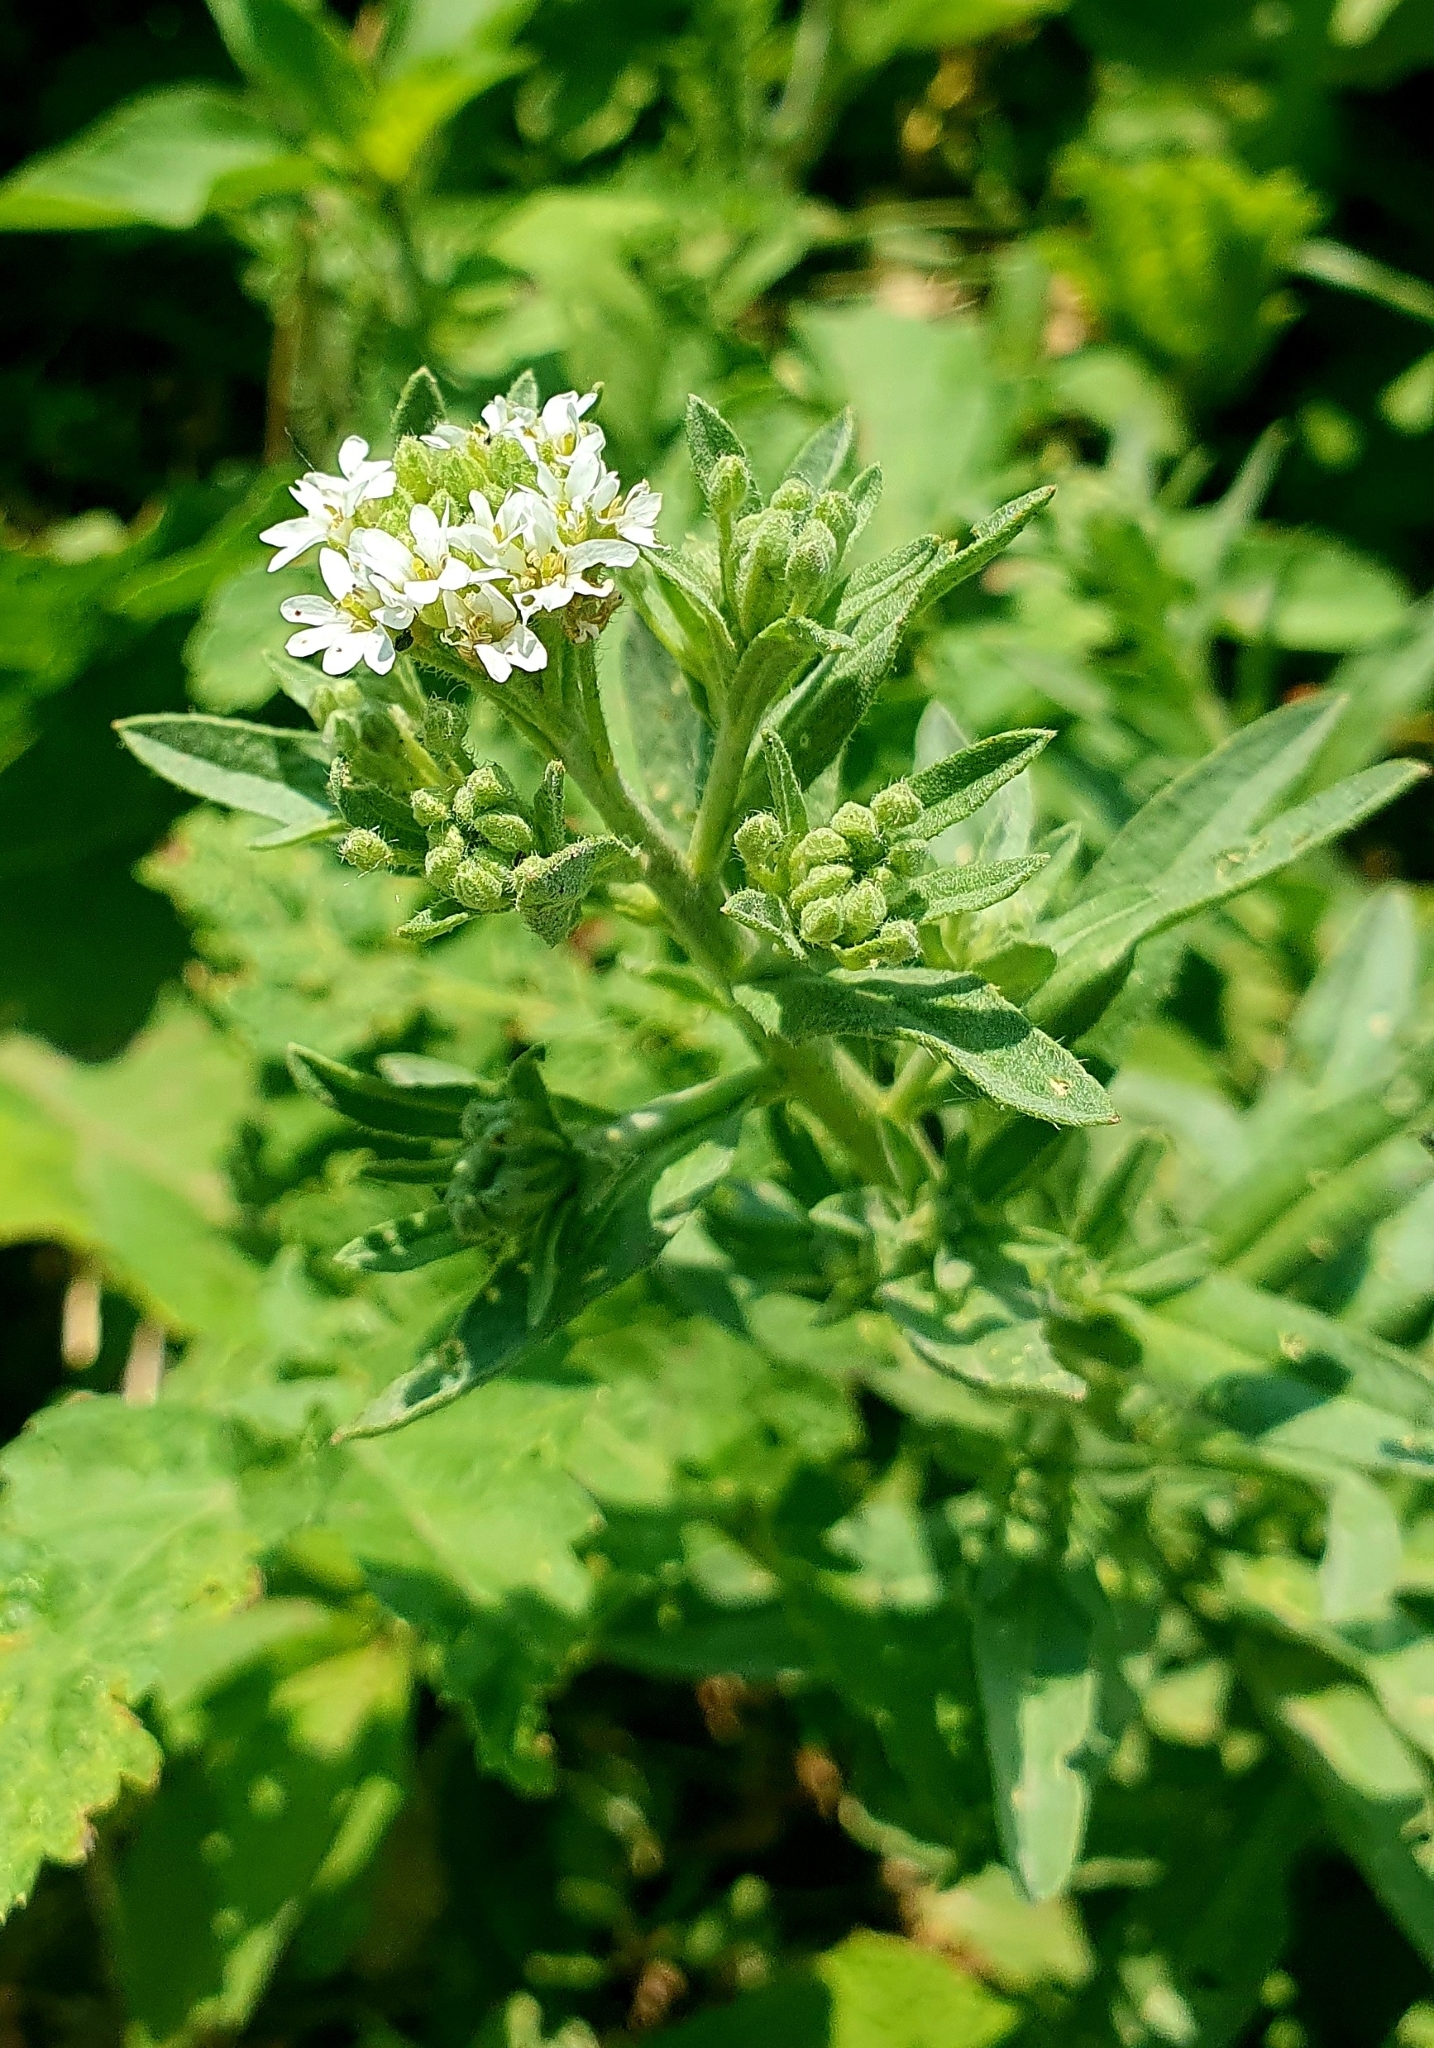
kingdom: Plantae
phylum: Tracheophyta
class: Magnoliopsida
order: Brassicales
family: Brassicaceae
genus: Berteroa
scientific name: Berteroa incana
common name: Hoary alison
